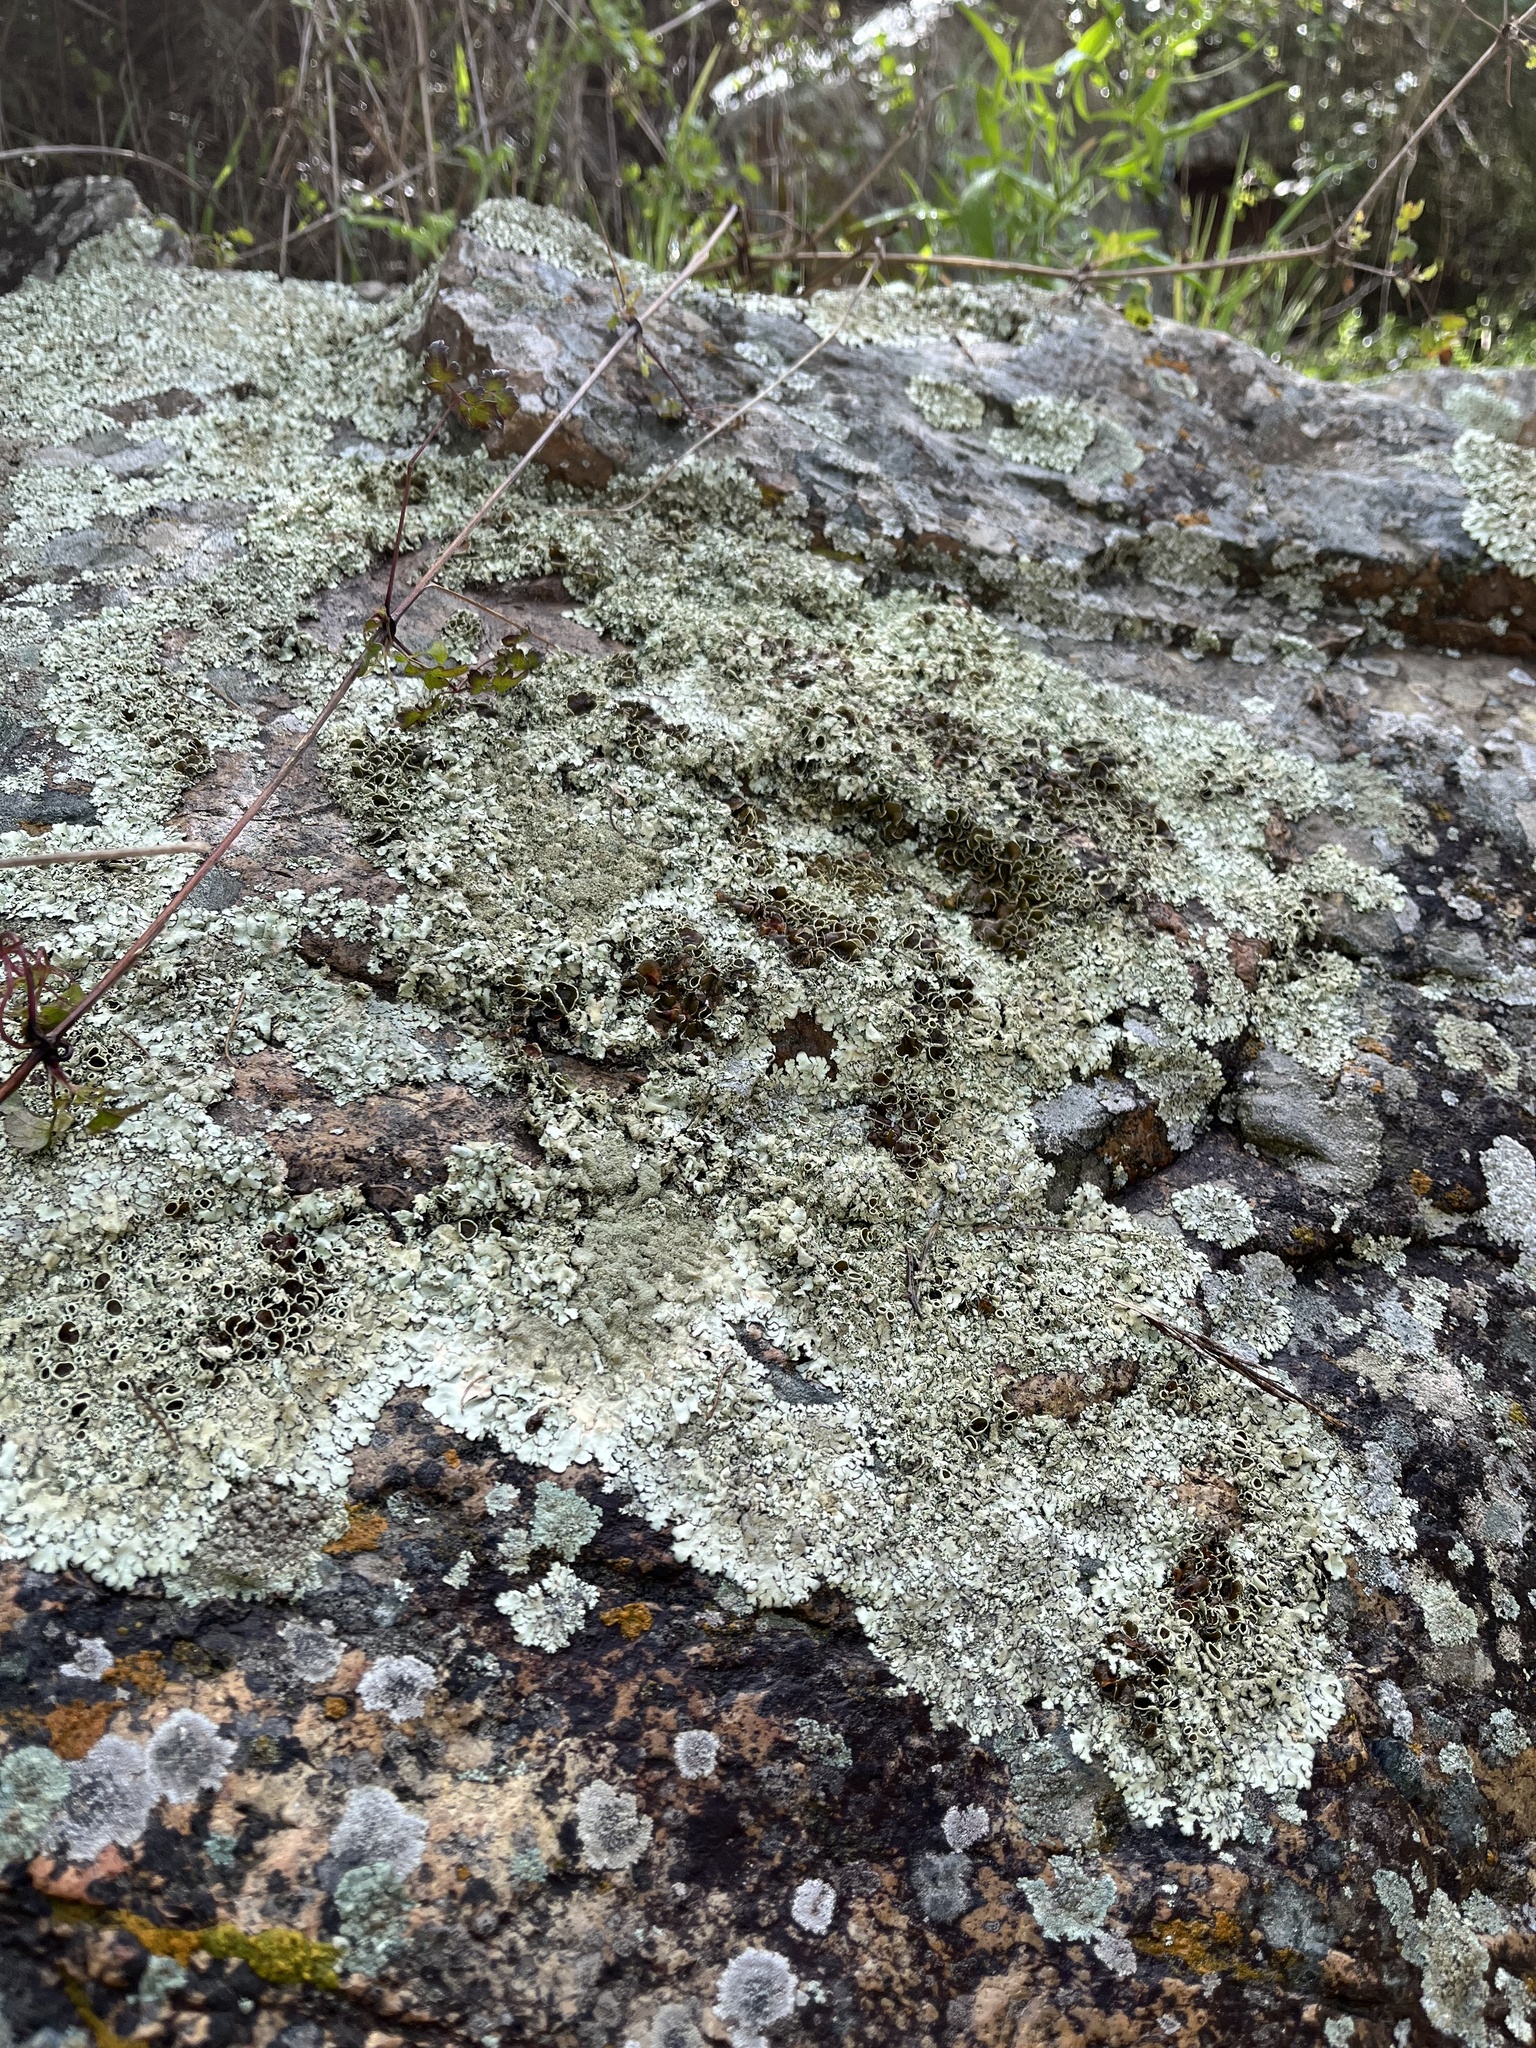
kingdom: Fungi
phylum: Ascomycota
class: Lecanoromycetes
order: Lecanorales
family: Parmeliaceae
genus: Xanthoparmelia
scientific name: Xanthoparmelia cumberlandia
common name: Cumberland rock shield
